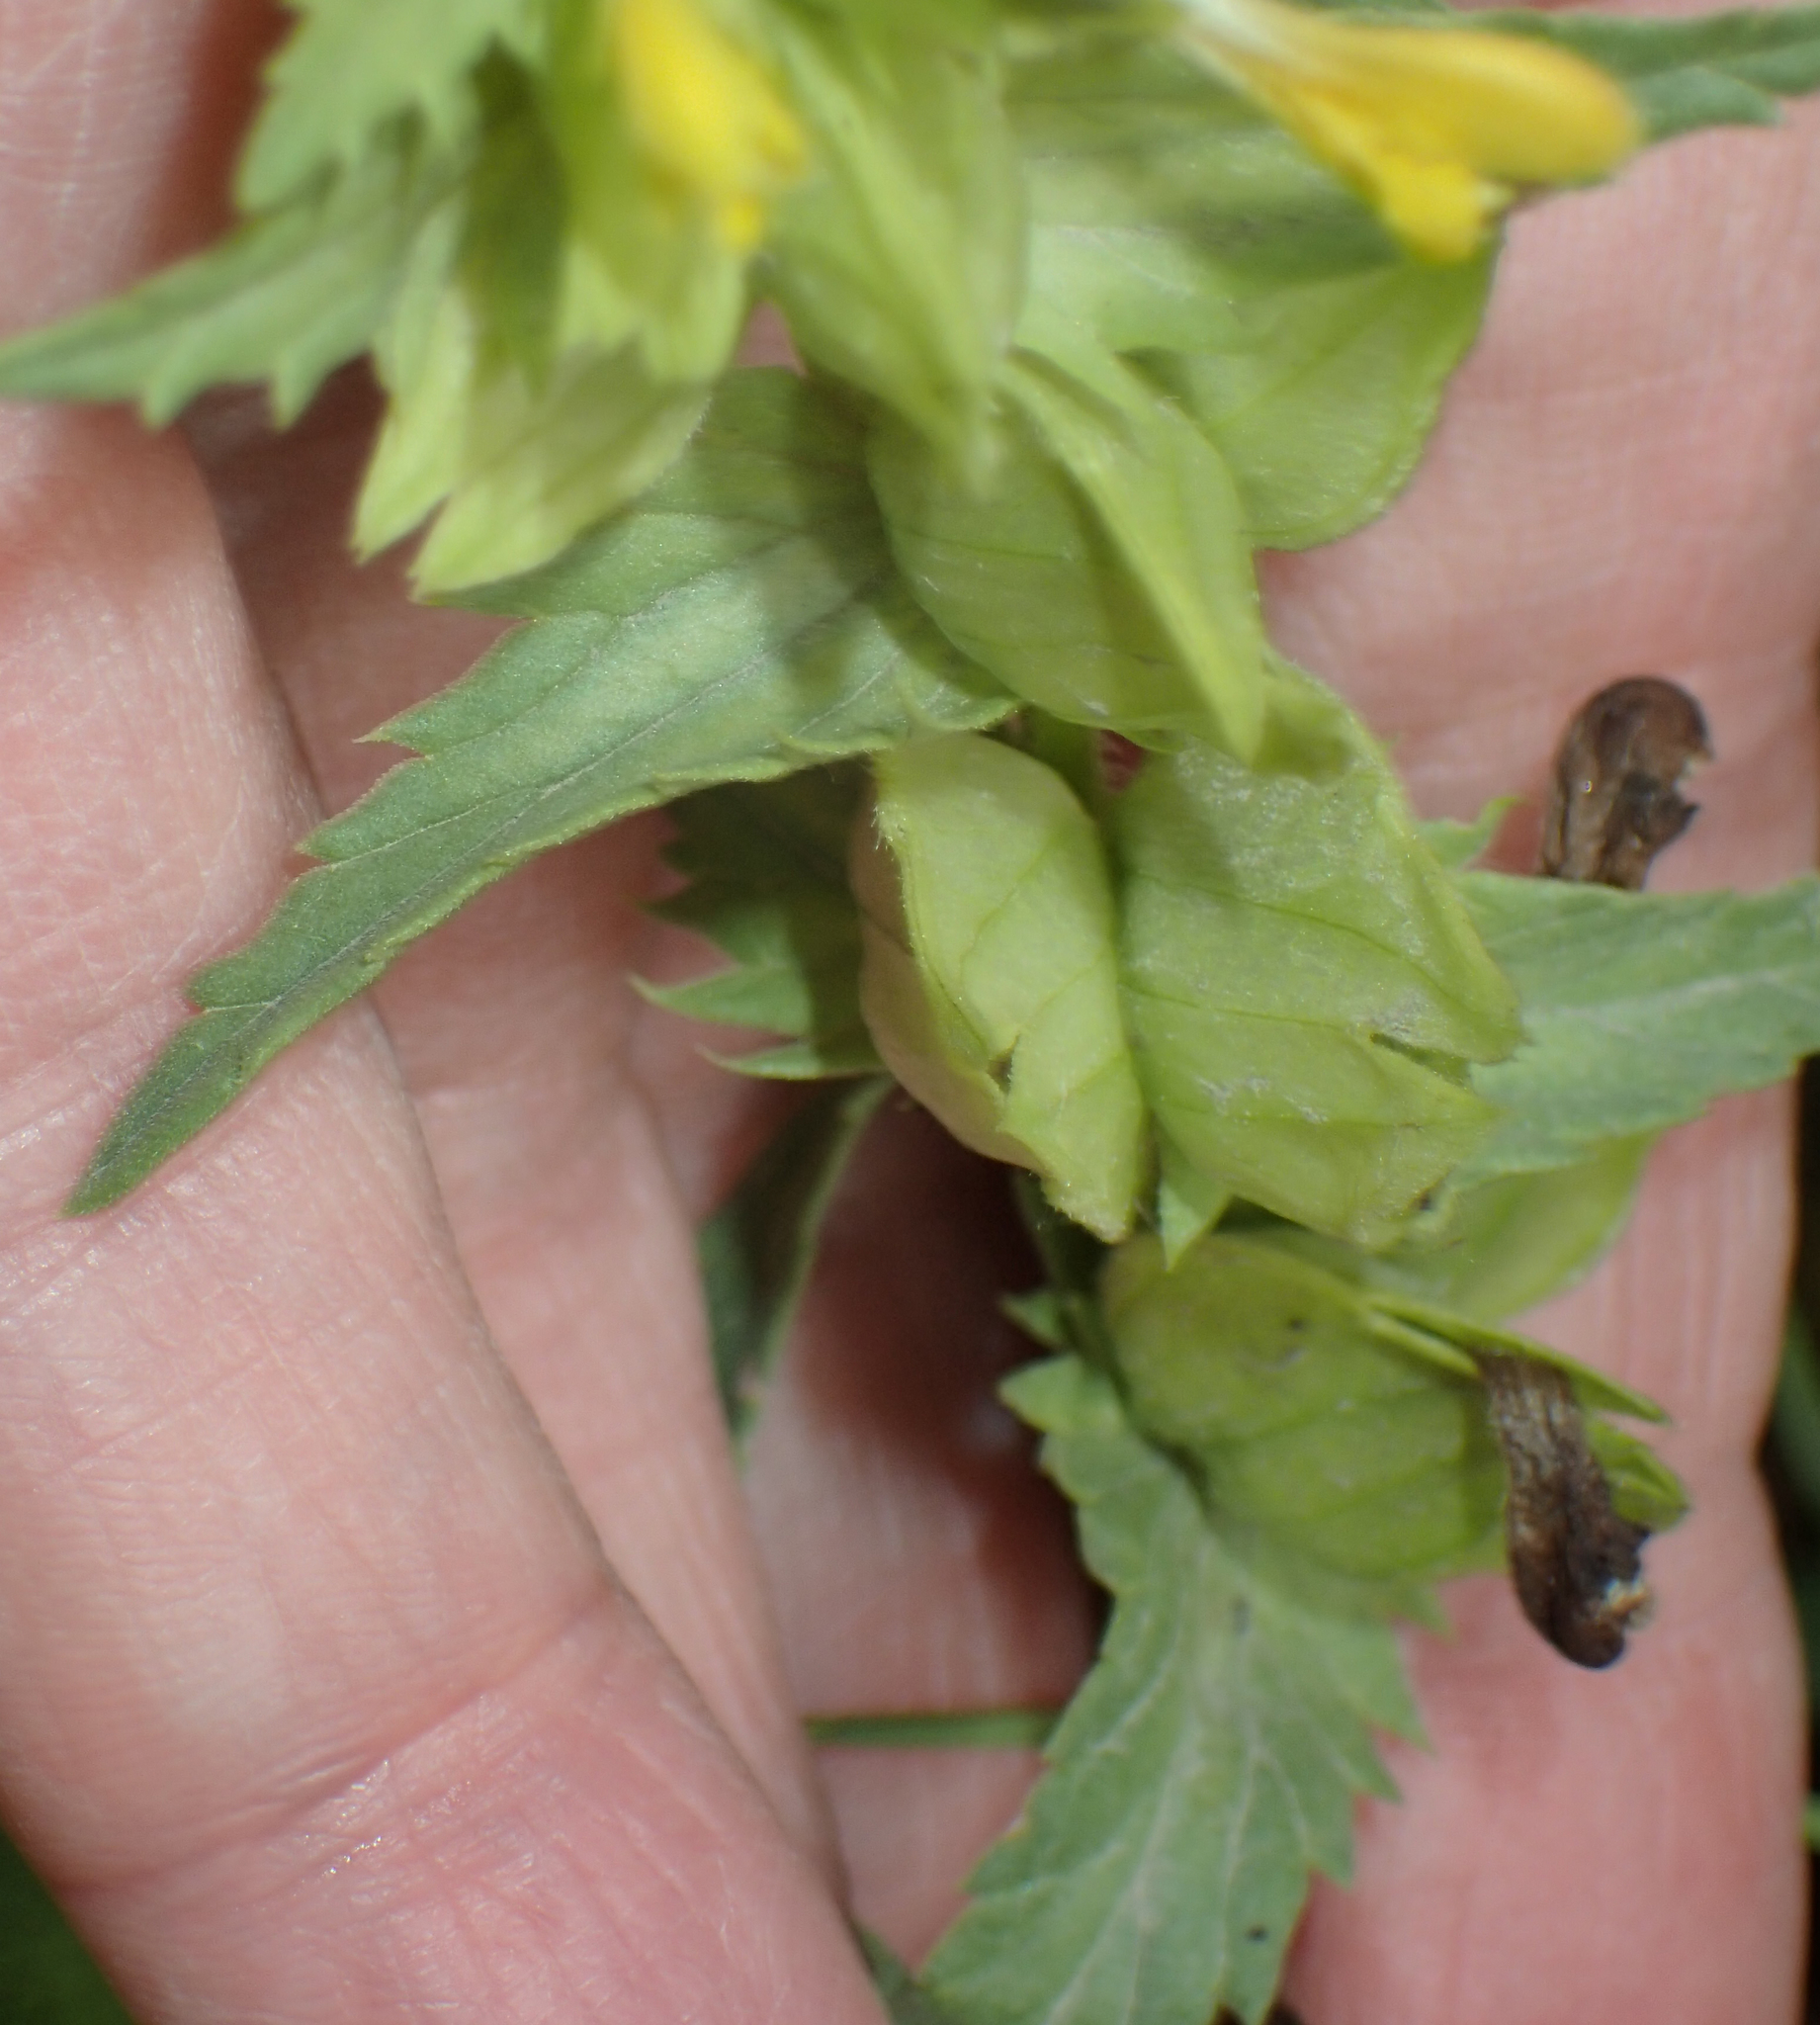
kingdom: Plantae
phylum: Tracheophyta
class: Magnoliopsida
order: Lamiales
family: Orobanchaceae
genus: Rhinanthus
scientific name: Rhinanthus minor
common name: Yellow-rattle
